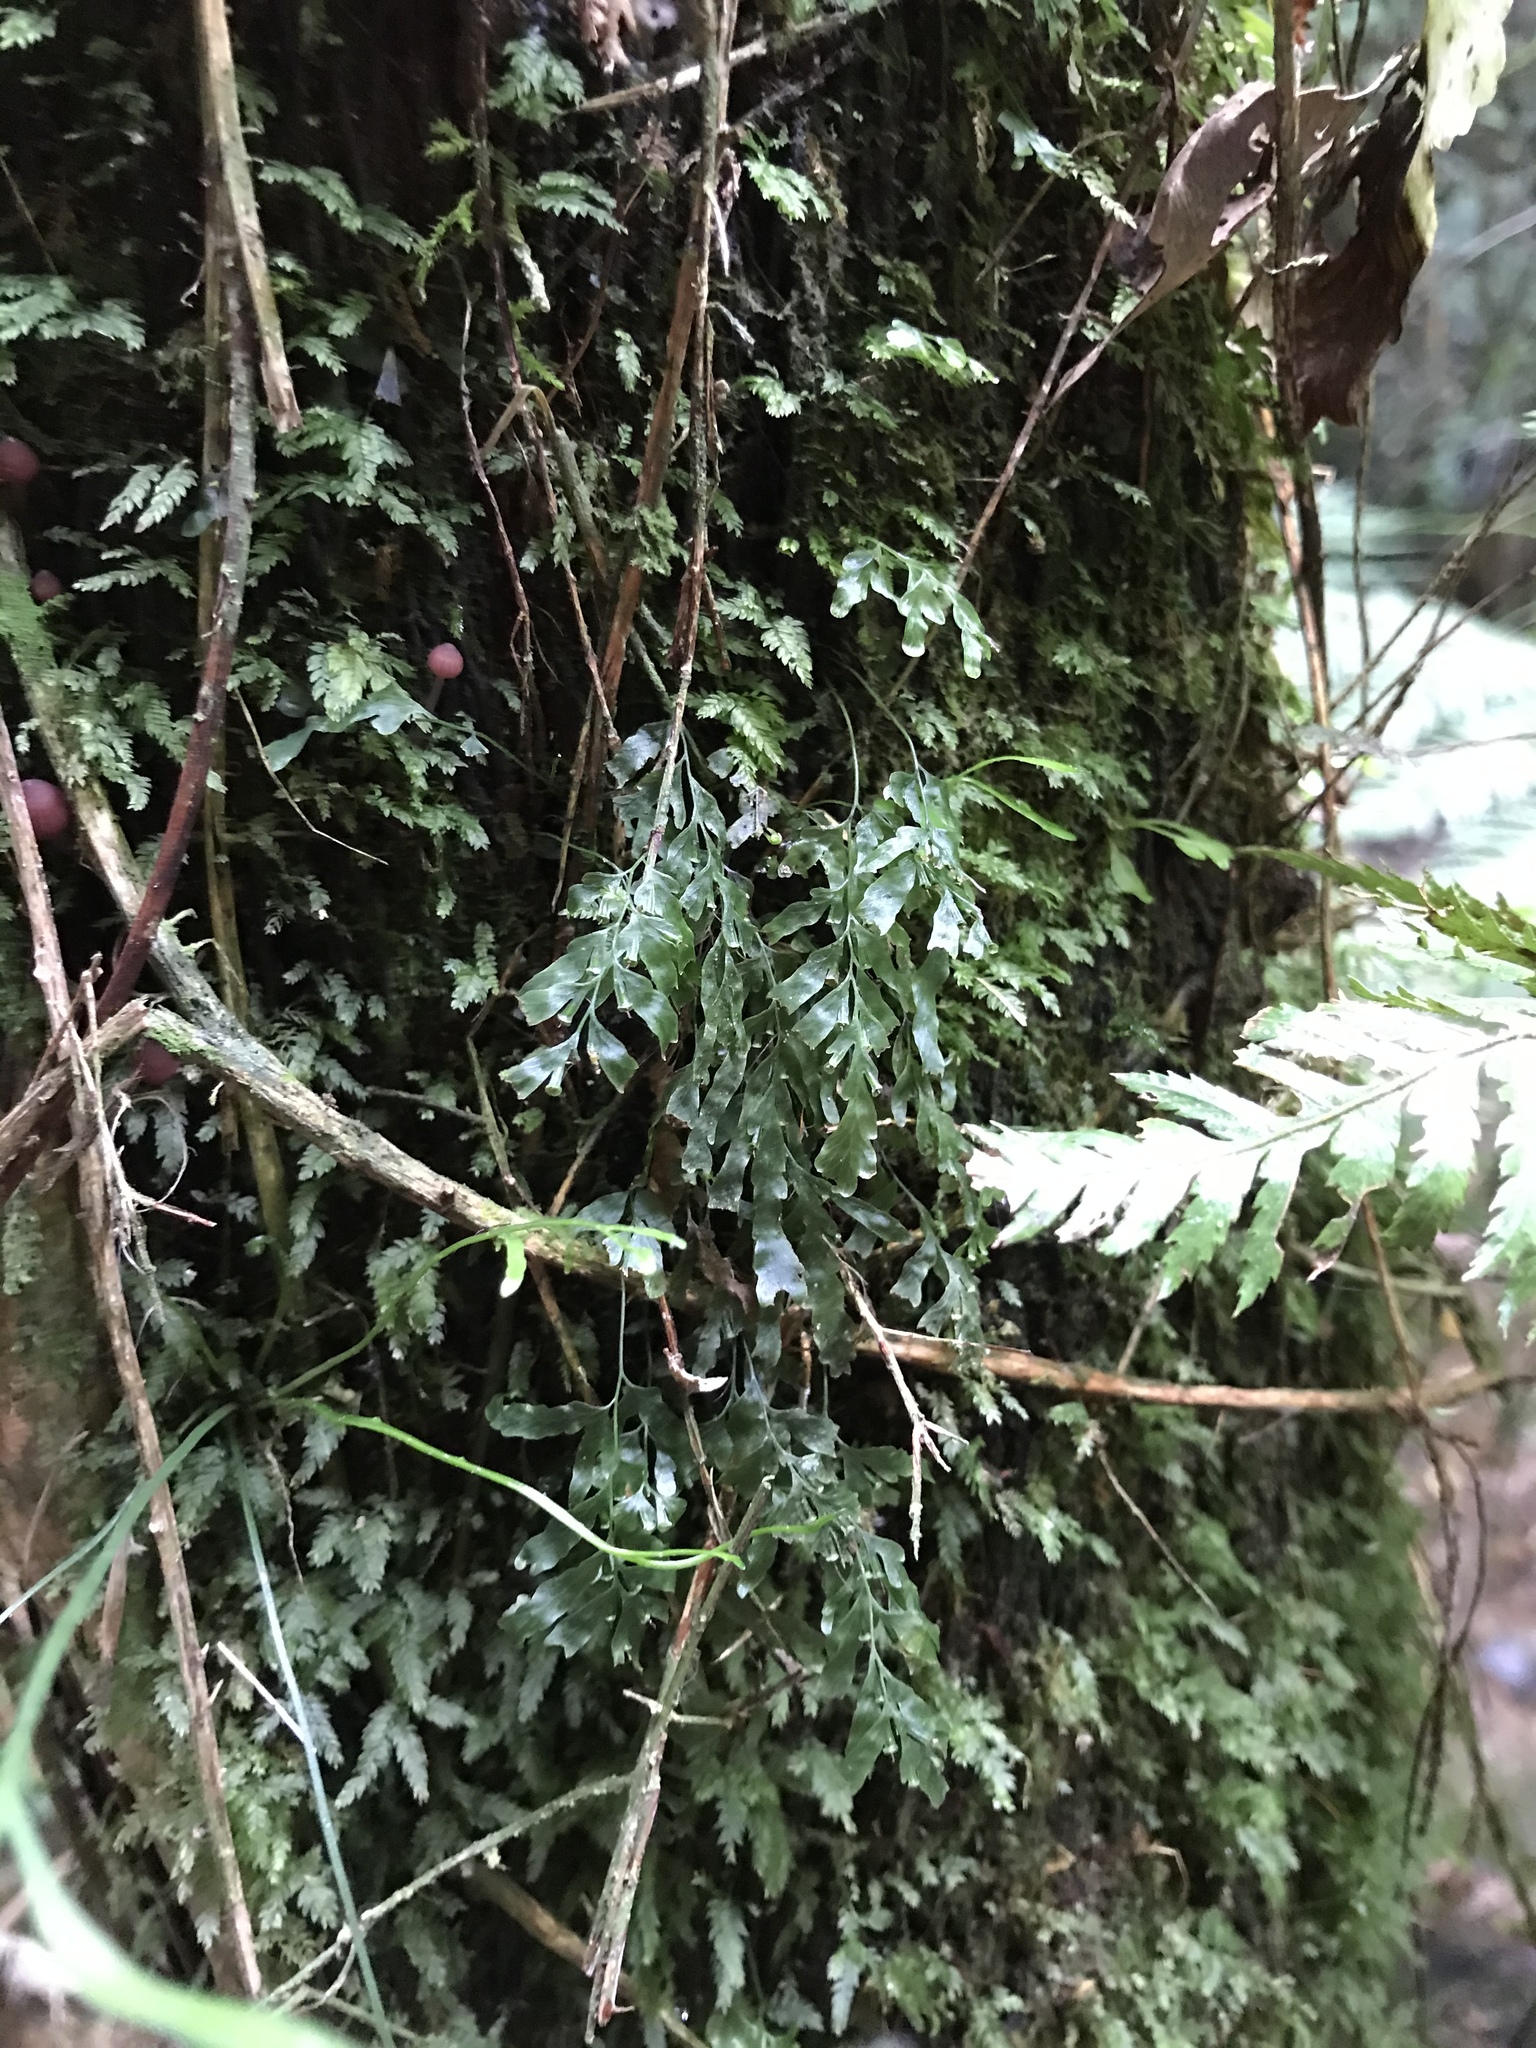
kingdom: Plantae
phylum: Tracheophyta
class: Polypodiopsida
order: Hymenophyllales
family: Hymenophyllaceae
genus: Polyphlebium
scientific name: Polyphlebium venosum
